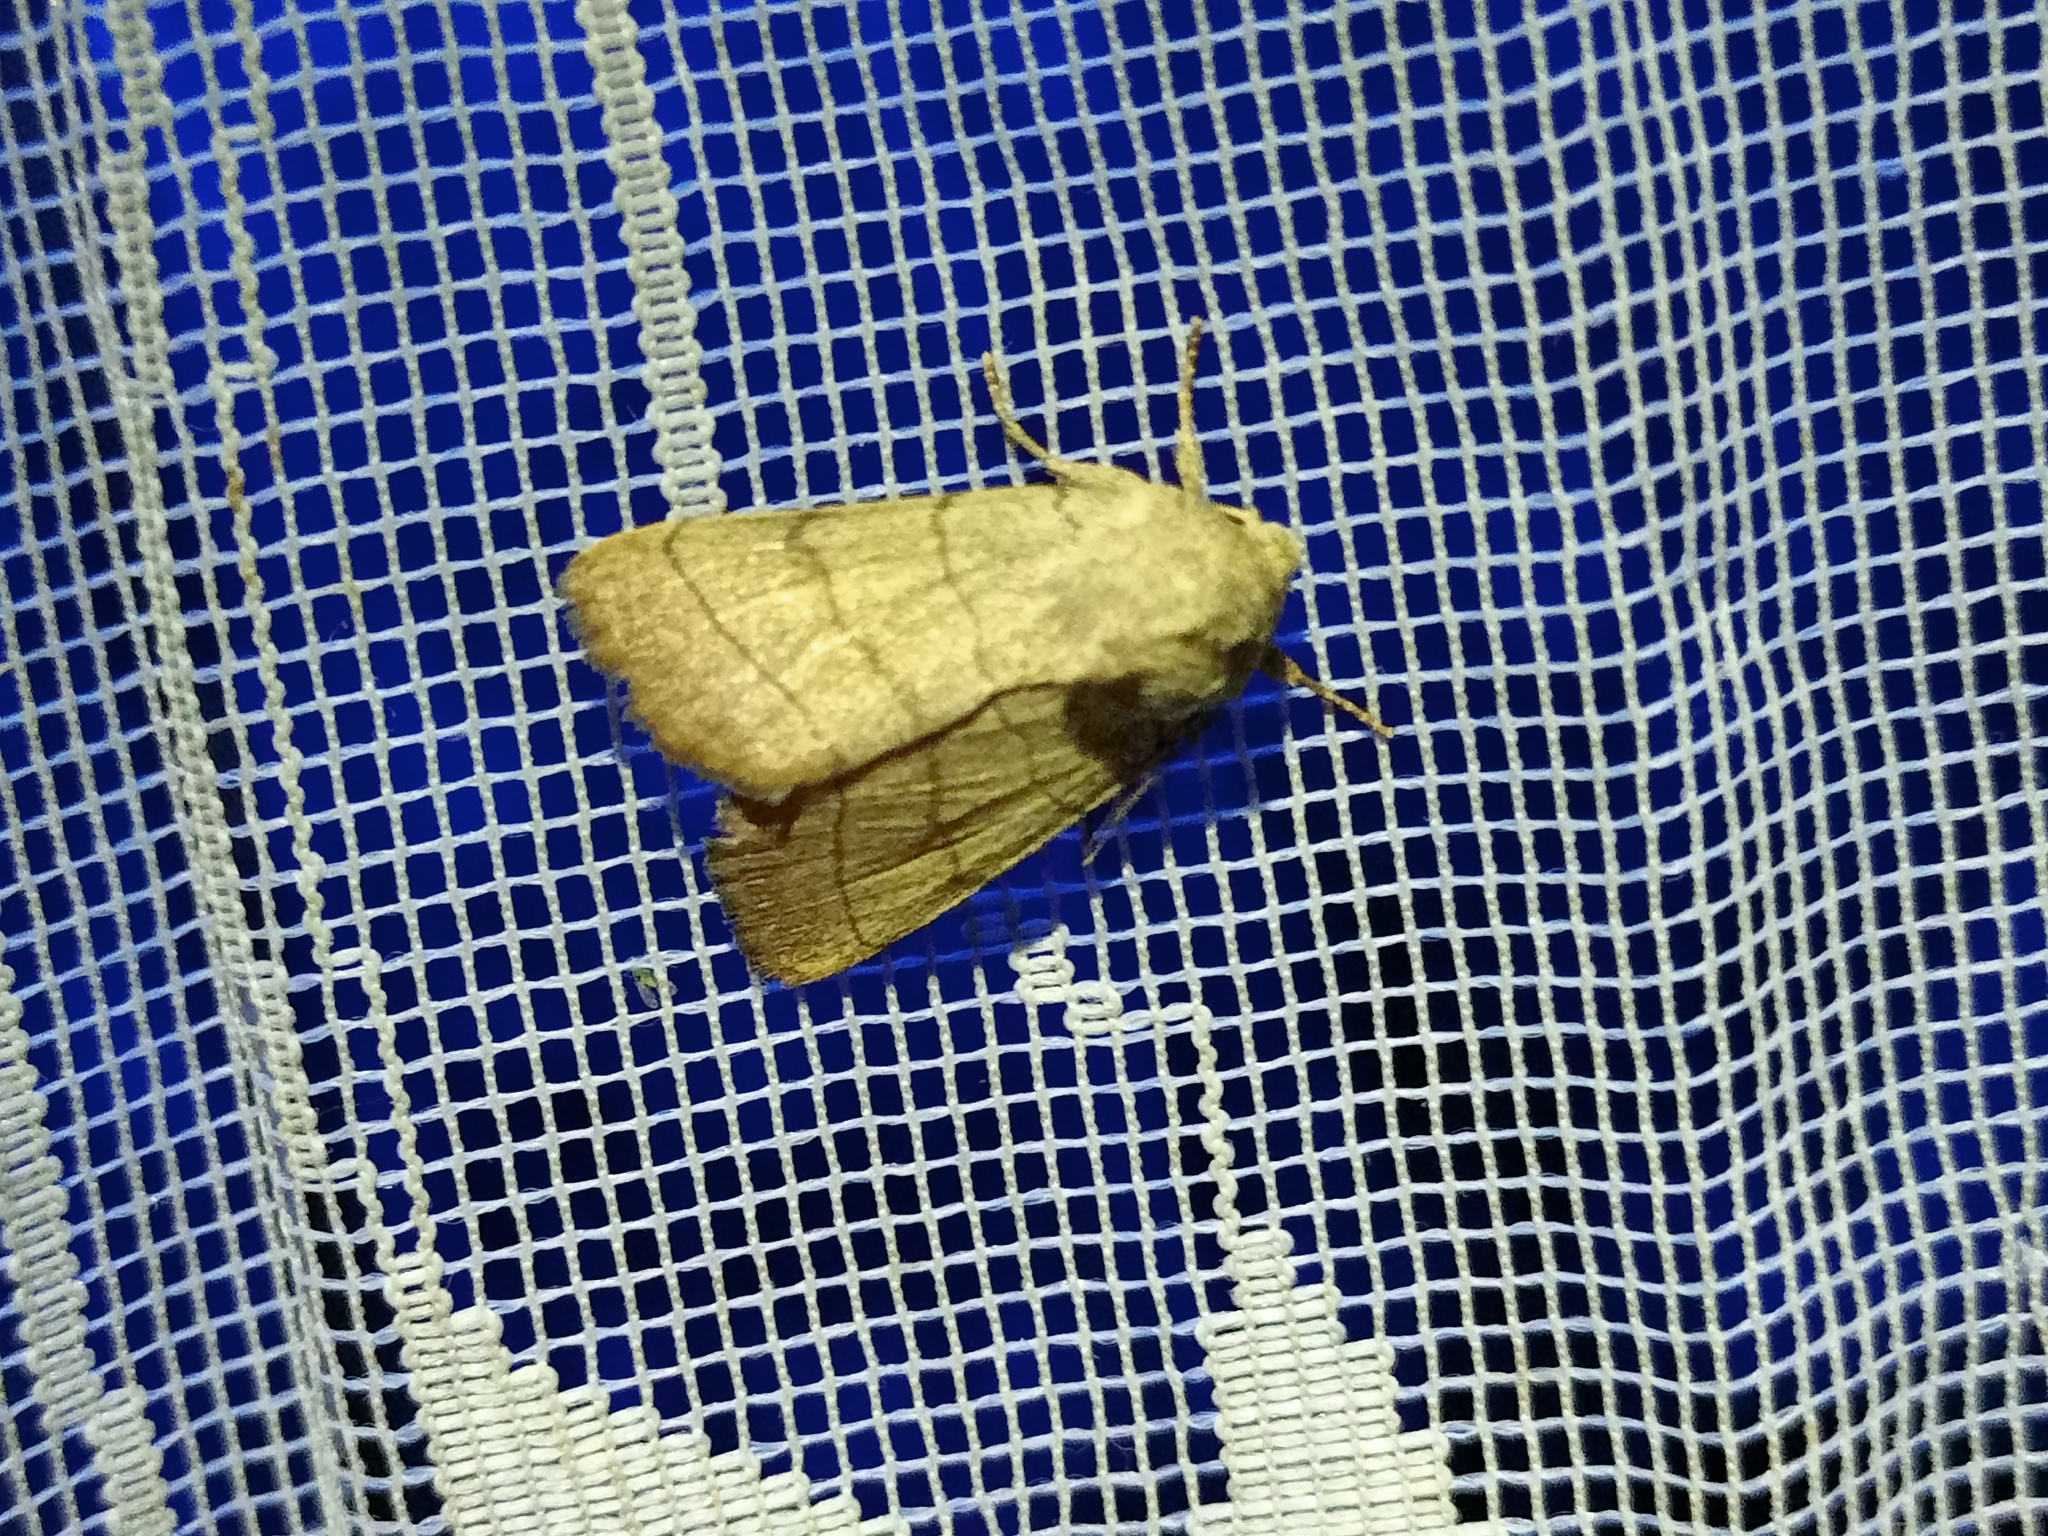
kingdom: Animalia
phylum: Arthropoda
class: Insecta
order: Lepidoptera
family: Noctuidae
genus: Charanyca
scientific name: Charanyca trigrammica
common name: Treble lines
